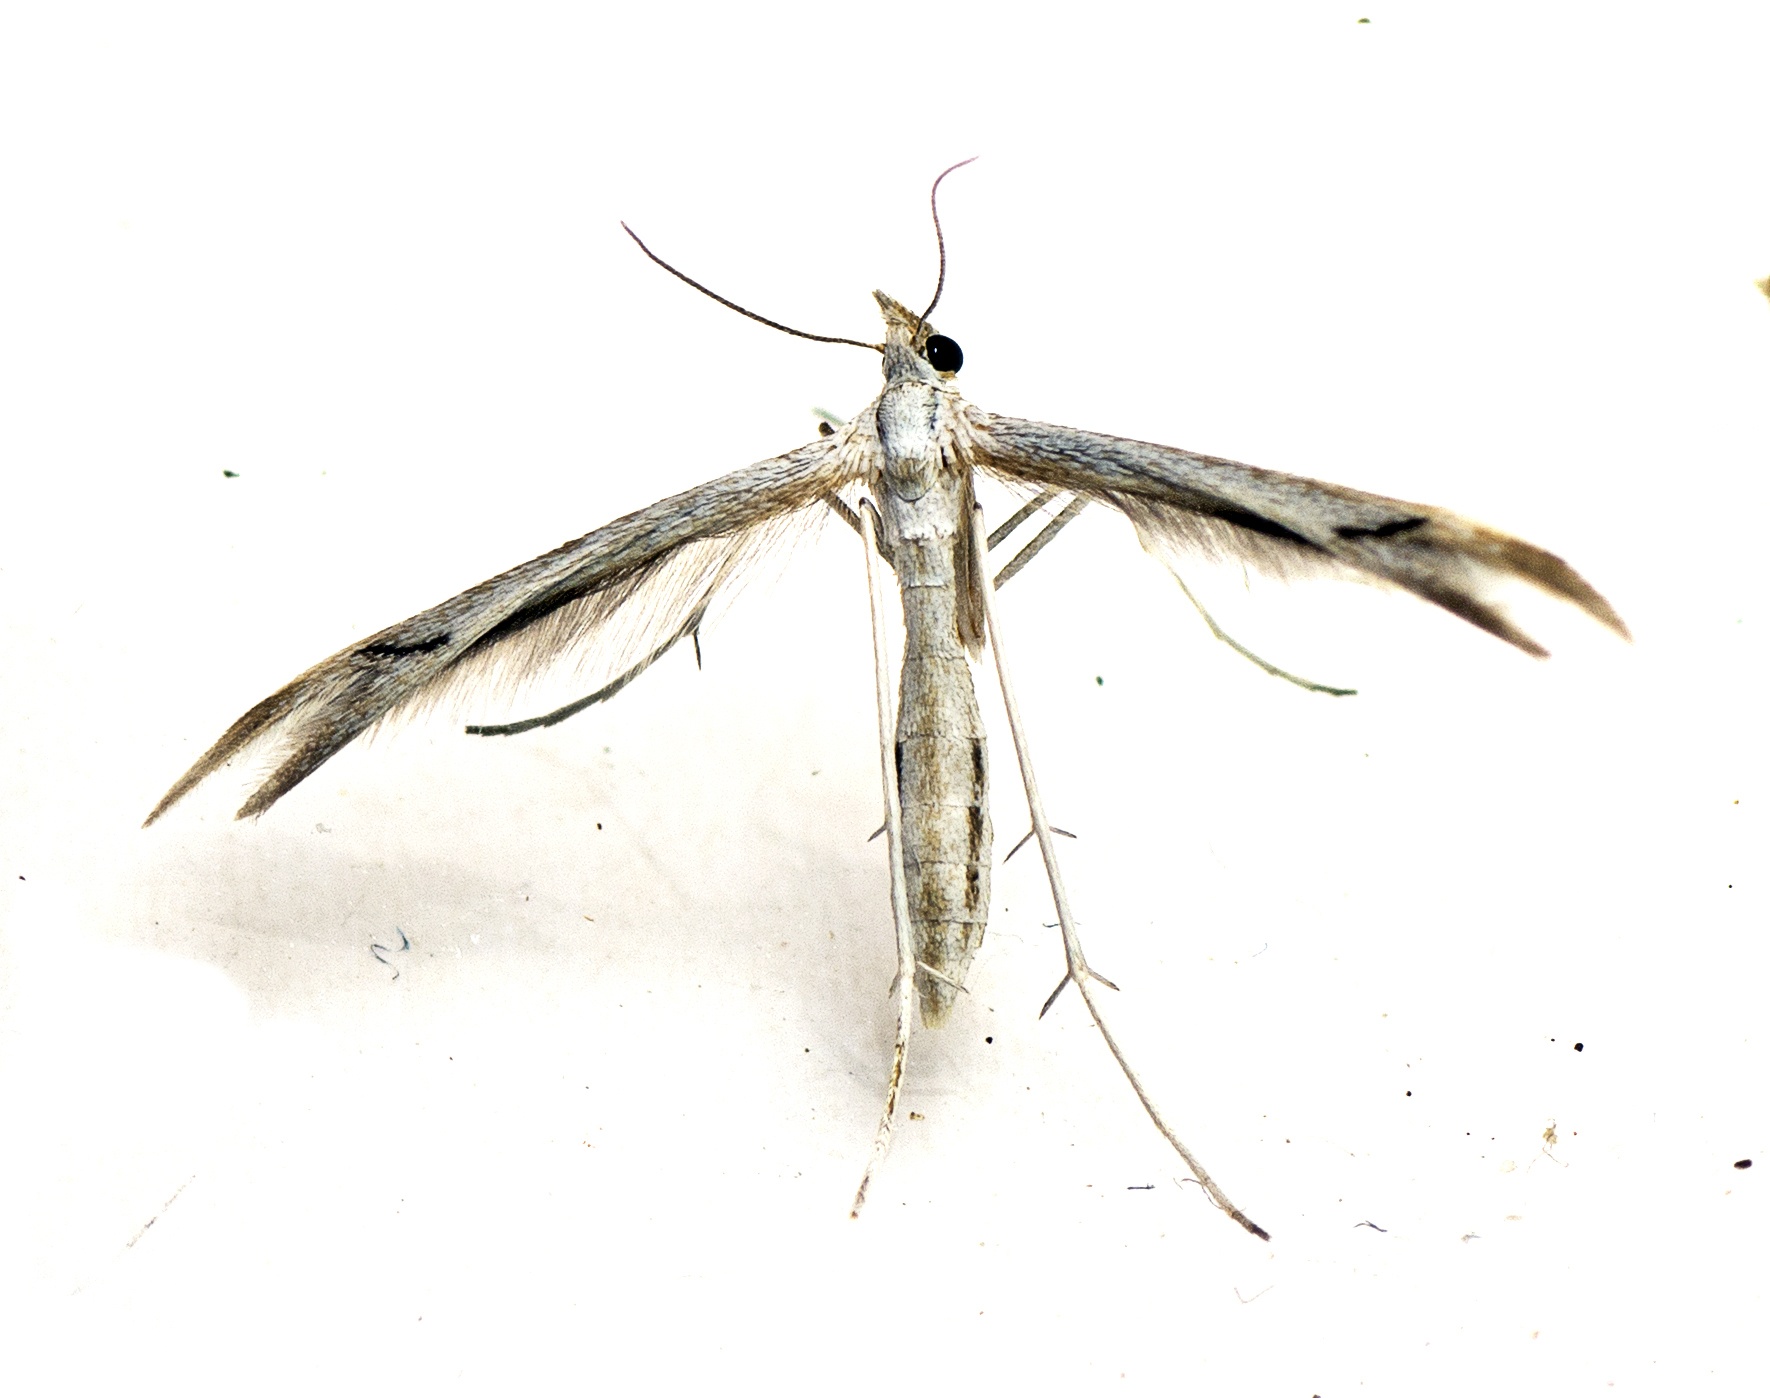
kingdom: Animalia
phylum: Arthropoda
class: Insecta
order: Lepidoptera
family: Pterophoridae
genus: Platyptilia
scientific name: Platyptilia celidotus
